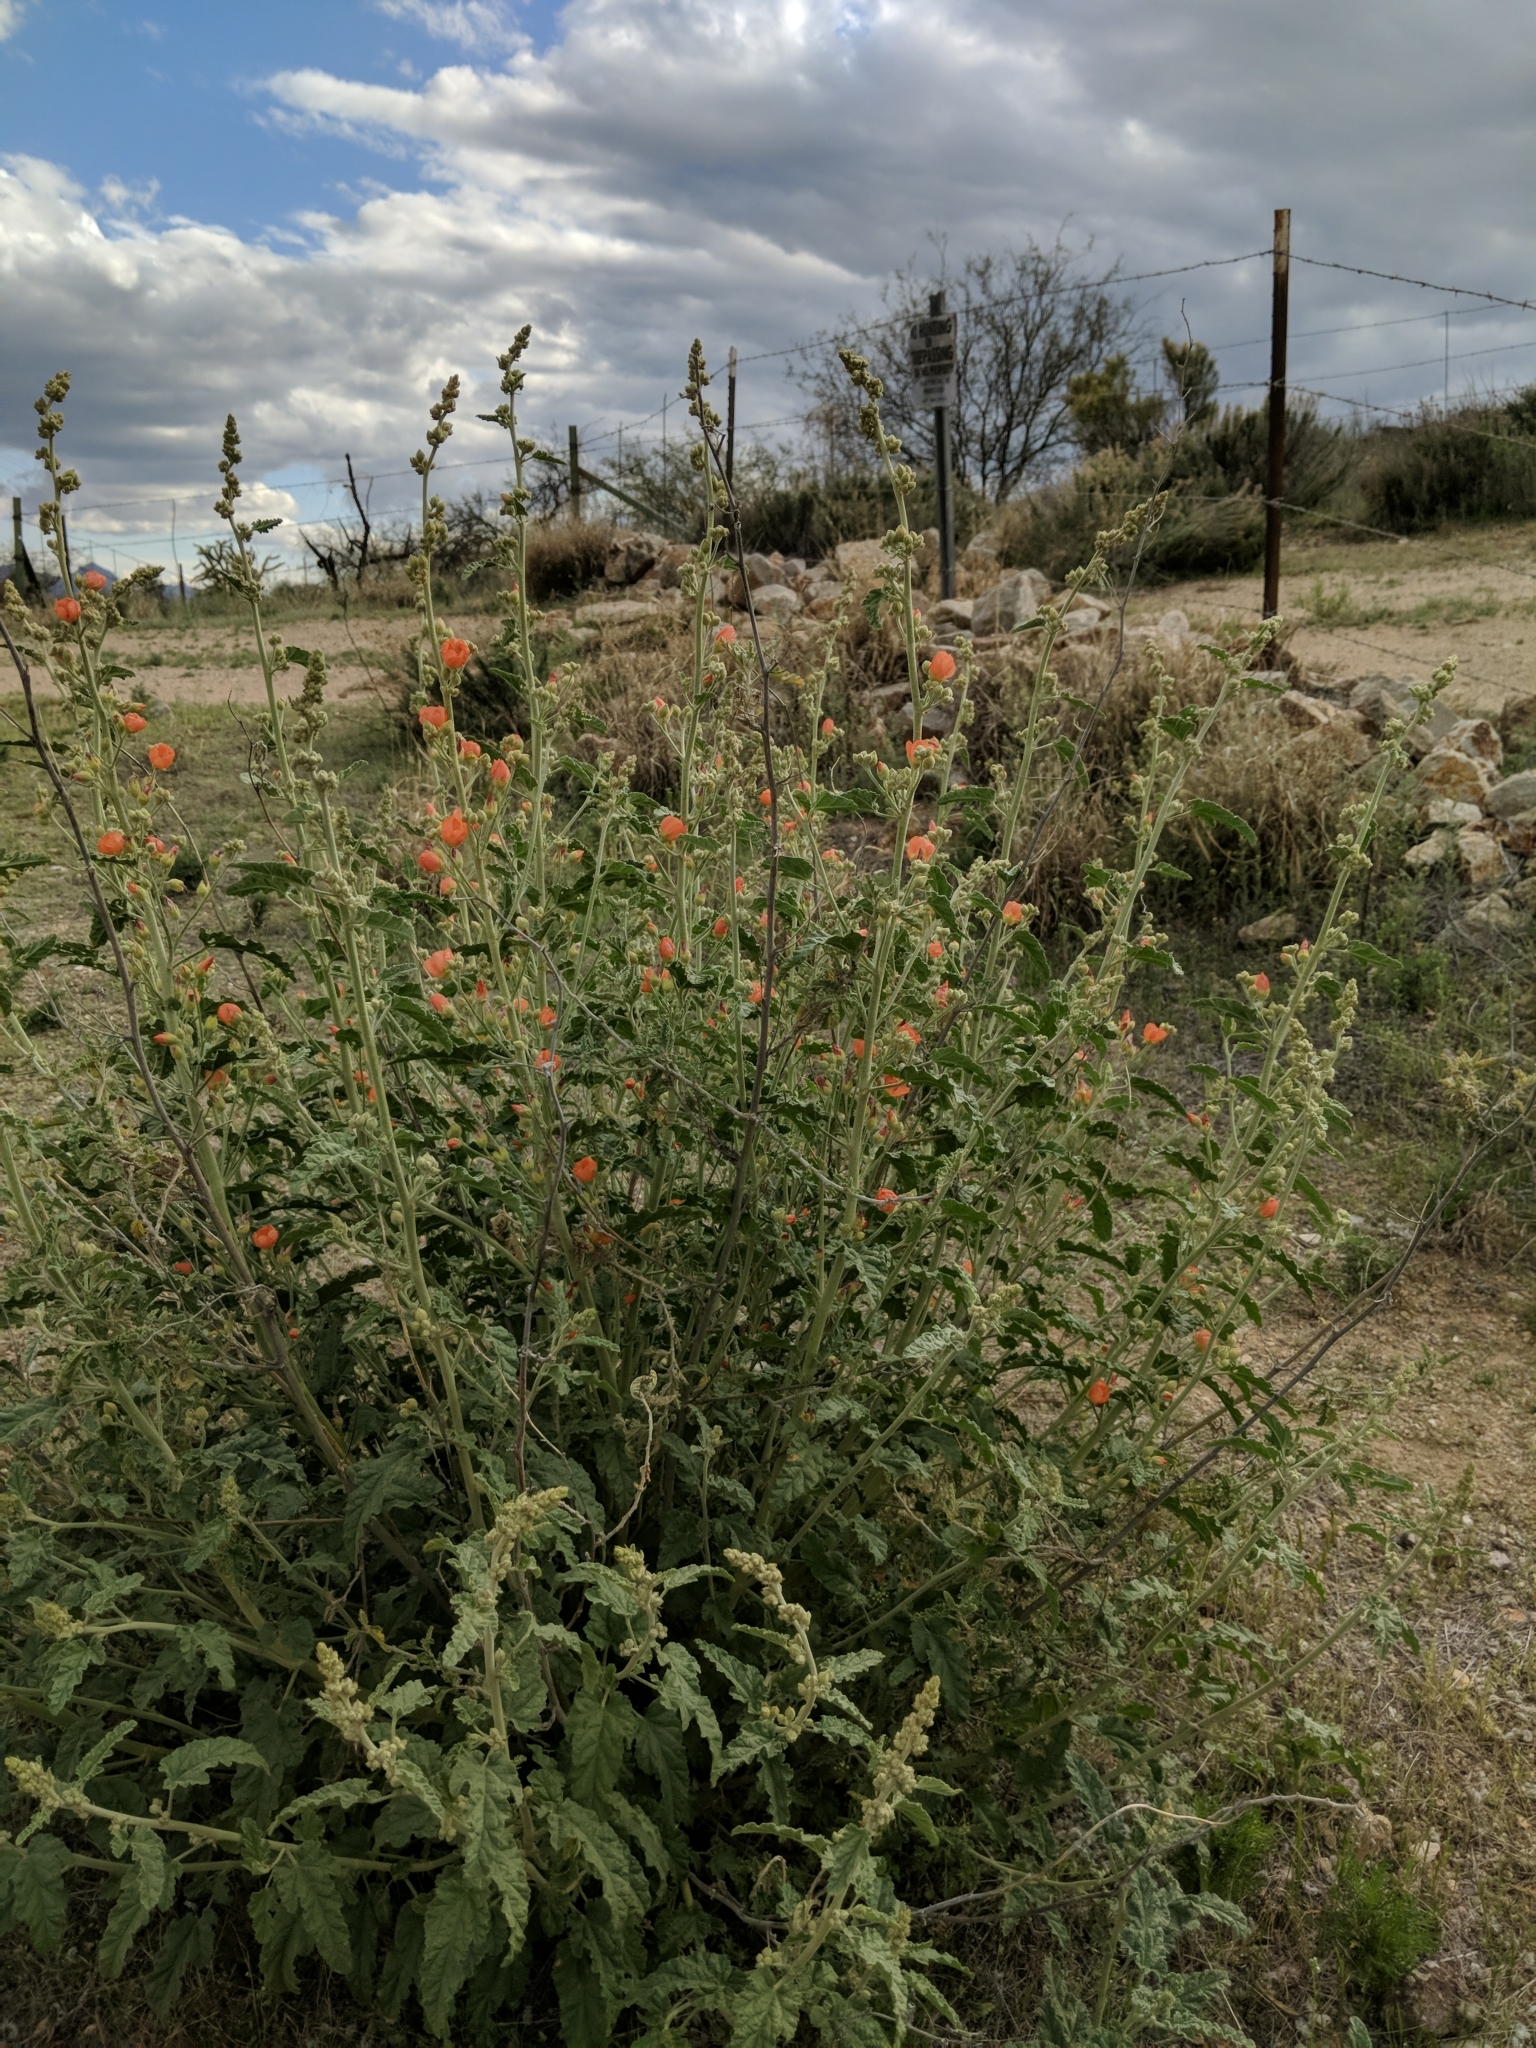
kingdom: Plantae
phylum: Tracheophyta
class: Magnoliopsida
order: Malvales
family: Malvaceae
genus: Sphaeralcea
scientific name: Sphaeralcea ambigua
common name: Apricot globe-mallow
